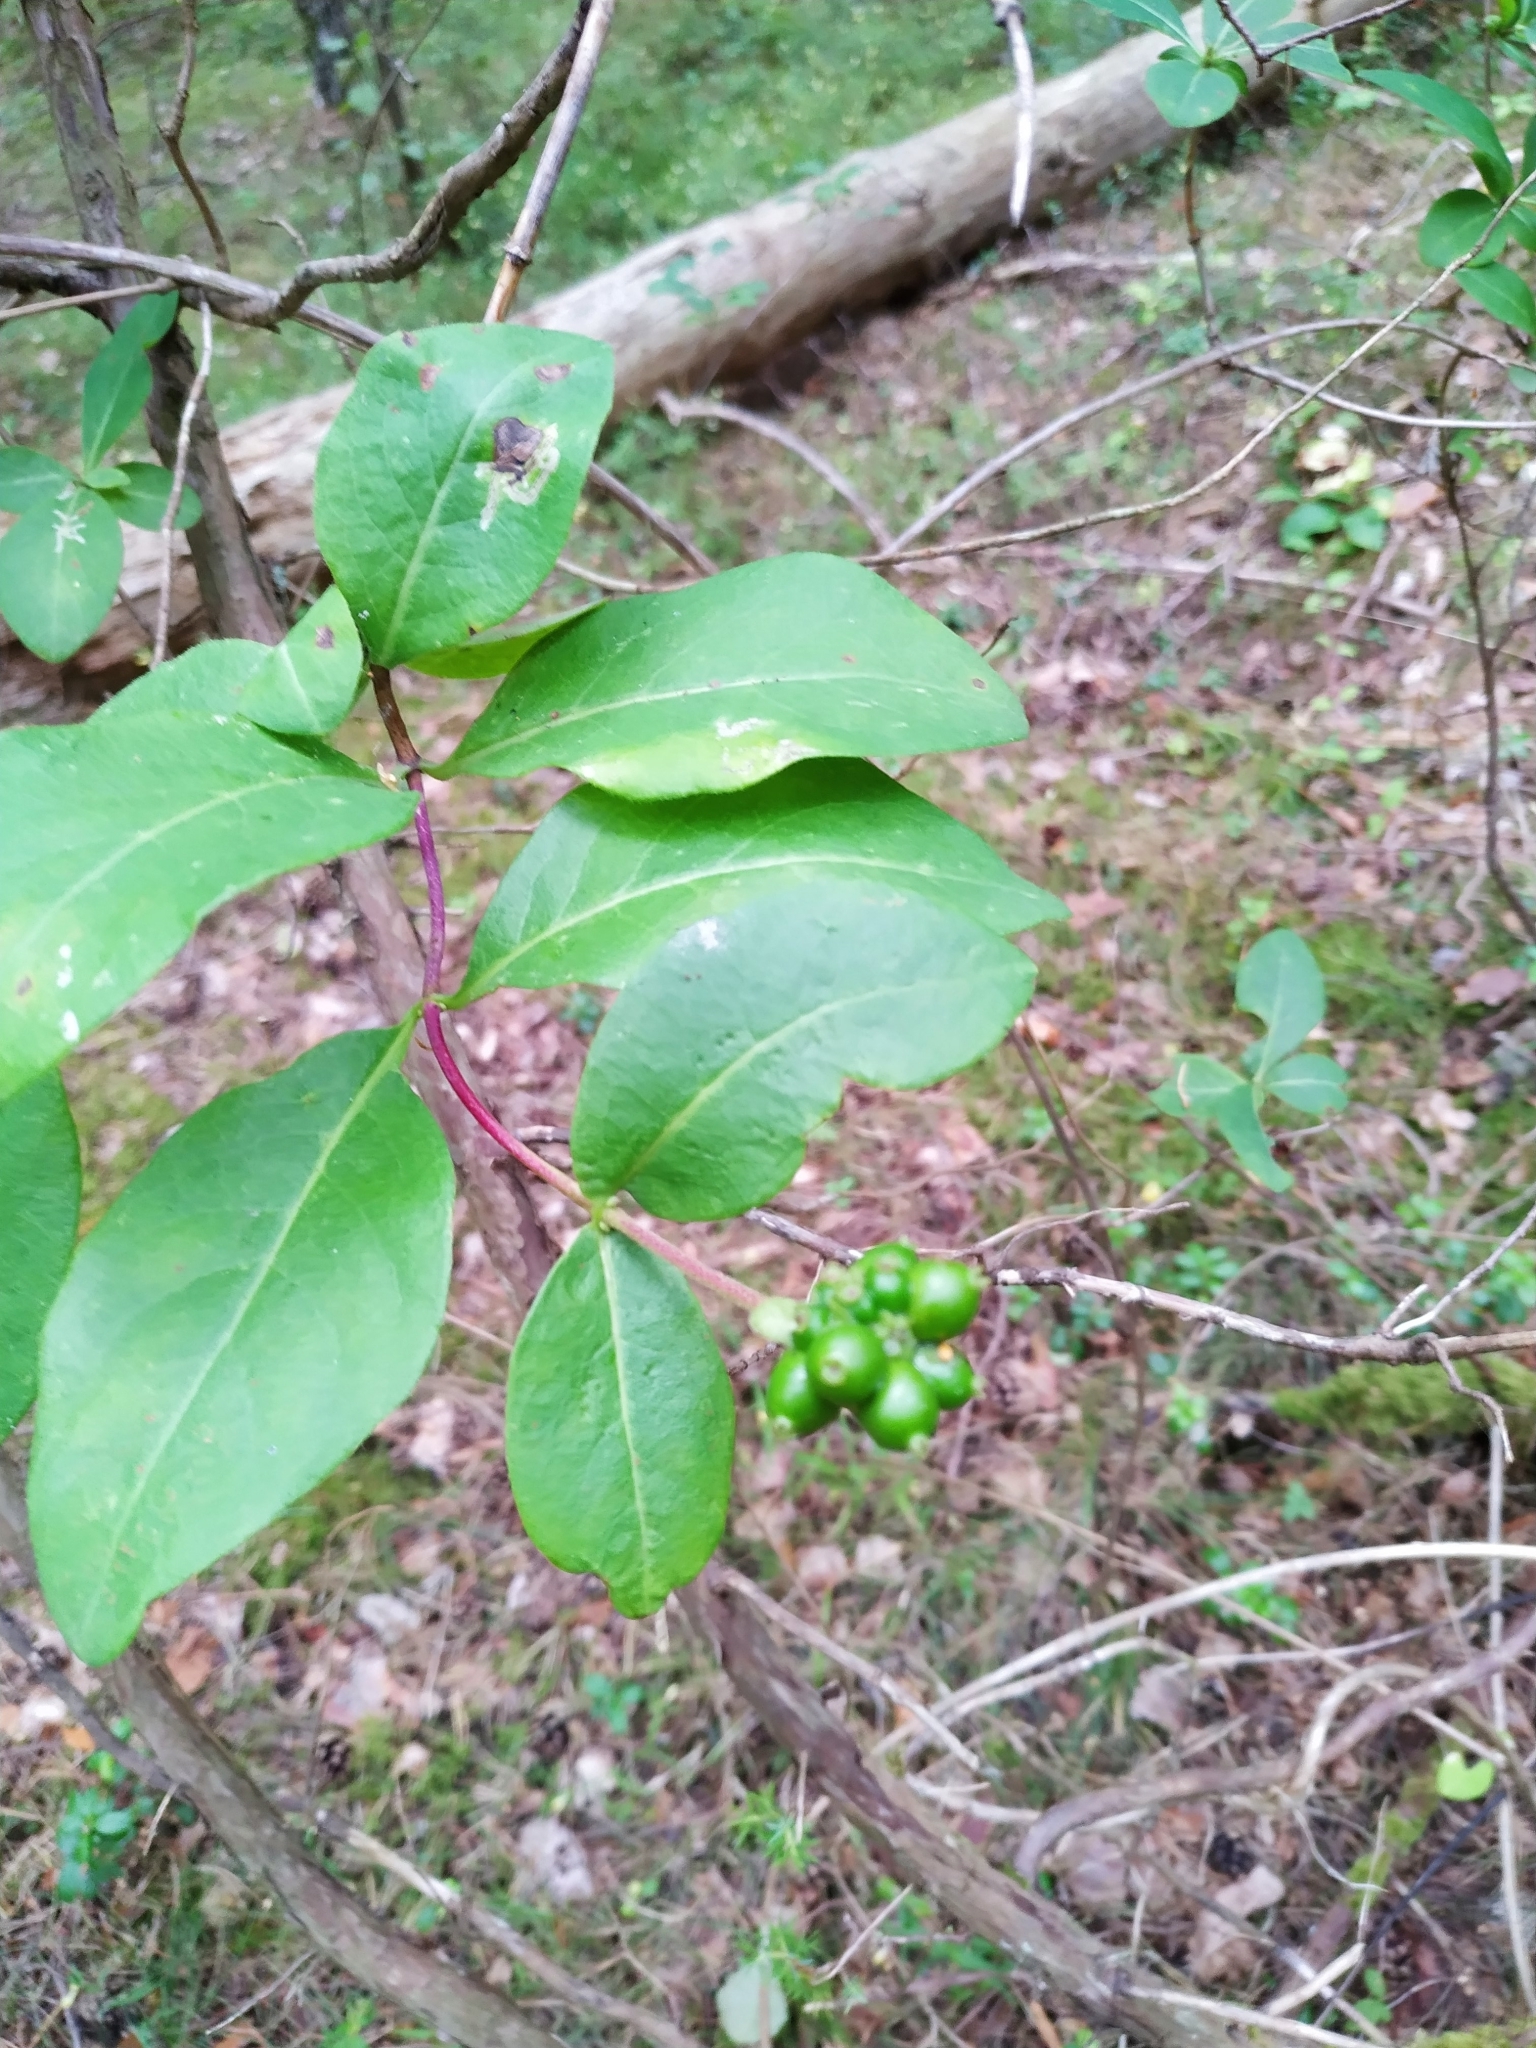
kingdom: Plantae
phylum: Tracheophyta
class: Magnoliopsida
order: Dipsacales
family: Caprifoliaceae
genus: Lonicera
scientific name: Lonicera periclymenum
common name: European honeysuckle
